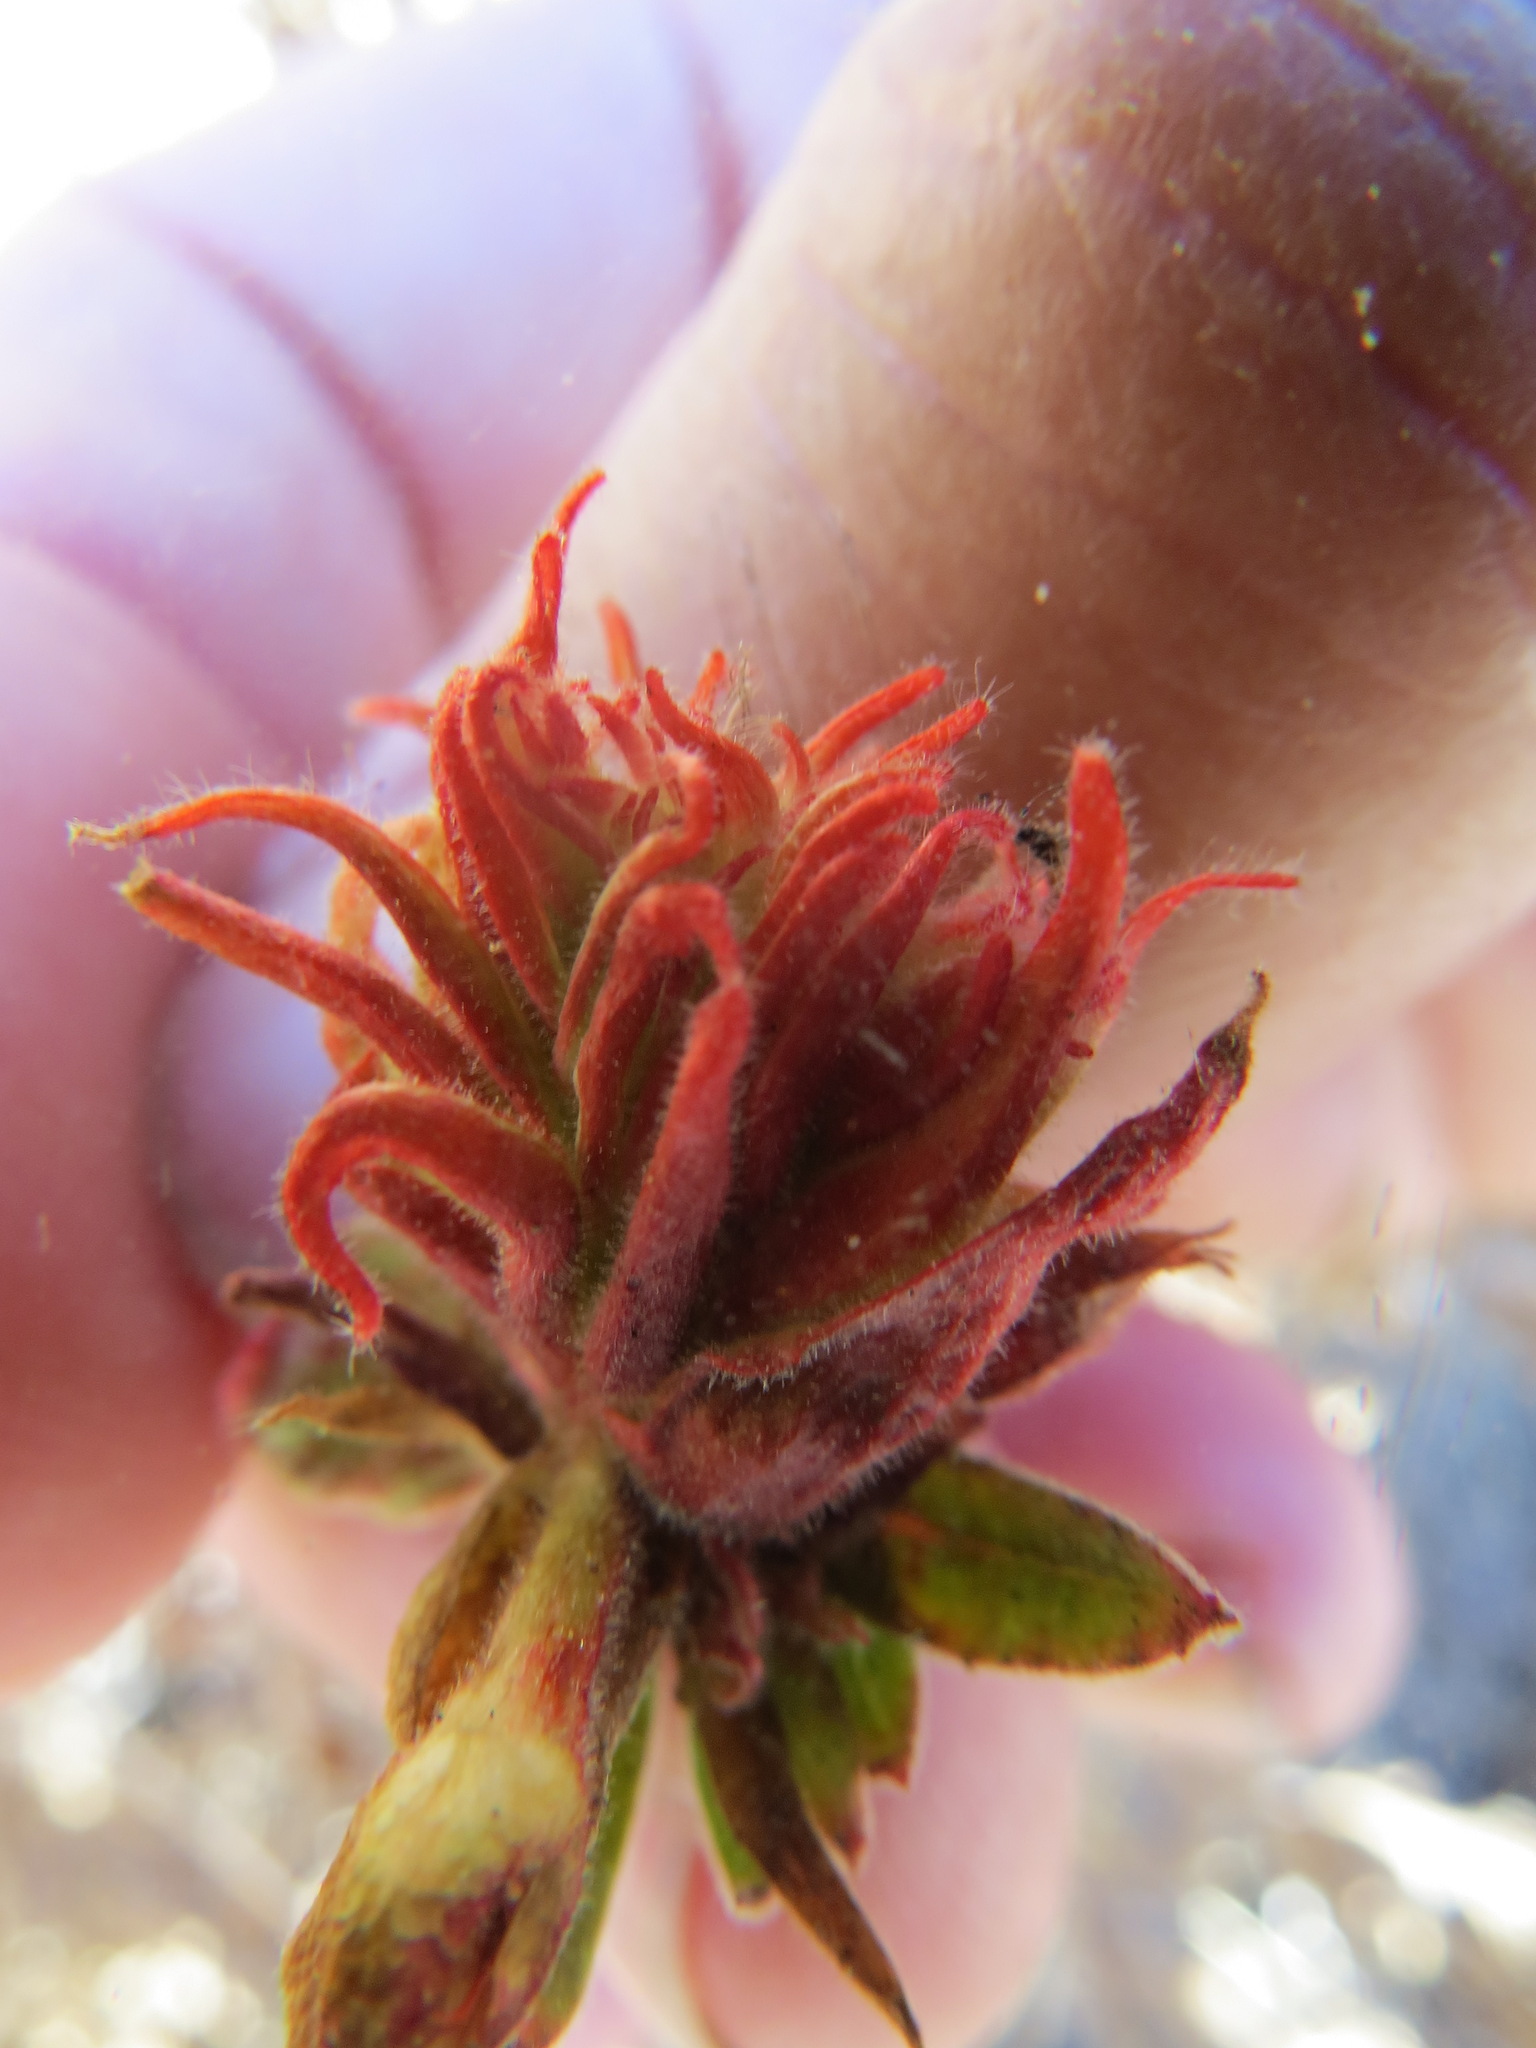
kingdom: Animalia
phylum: Arthropoda
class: Insecta
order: Diptera
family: Cecidomyiidae
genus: Contarinia
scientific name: Contarinia zauschneriae
